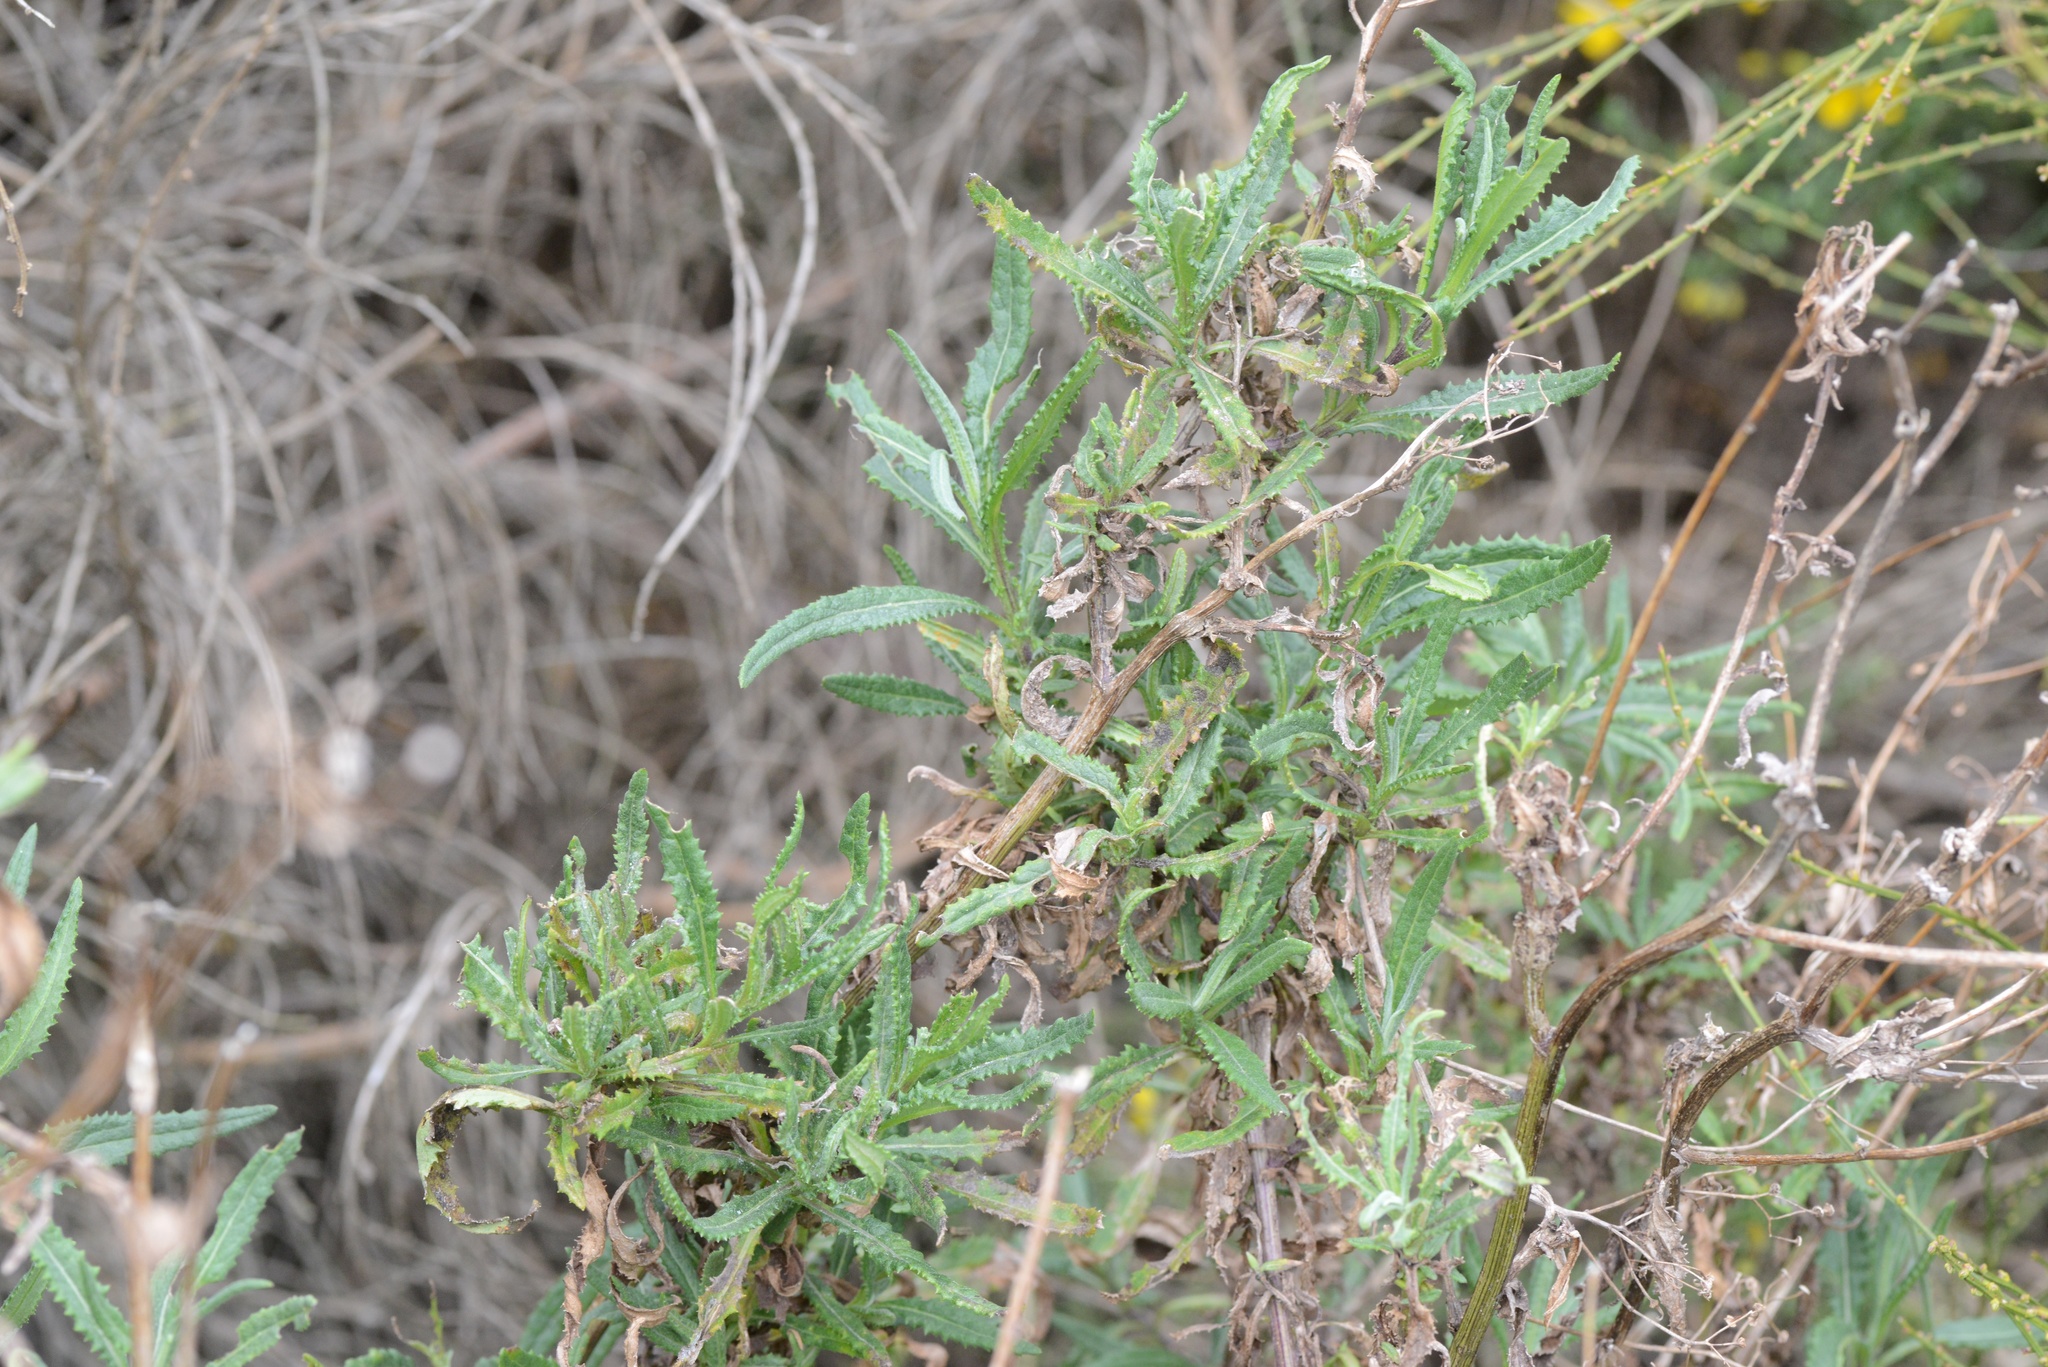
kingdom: Plantae
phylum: Tracheophyta
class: Magnoliopsida
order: Asterales
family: Asteraceae
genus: Senecio
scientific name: Senecio minimus
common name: Toothed fireweed
